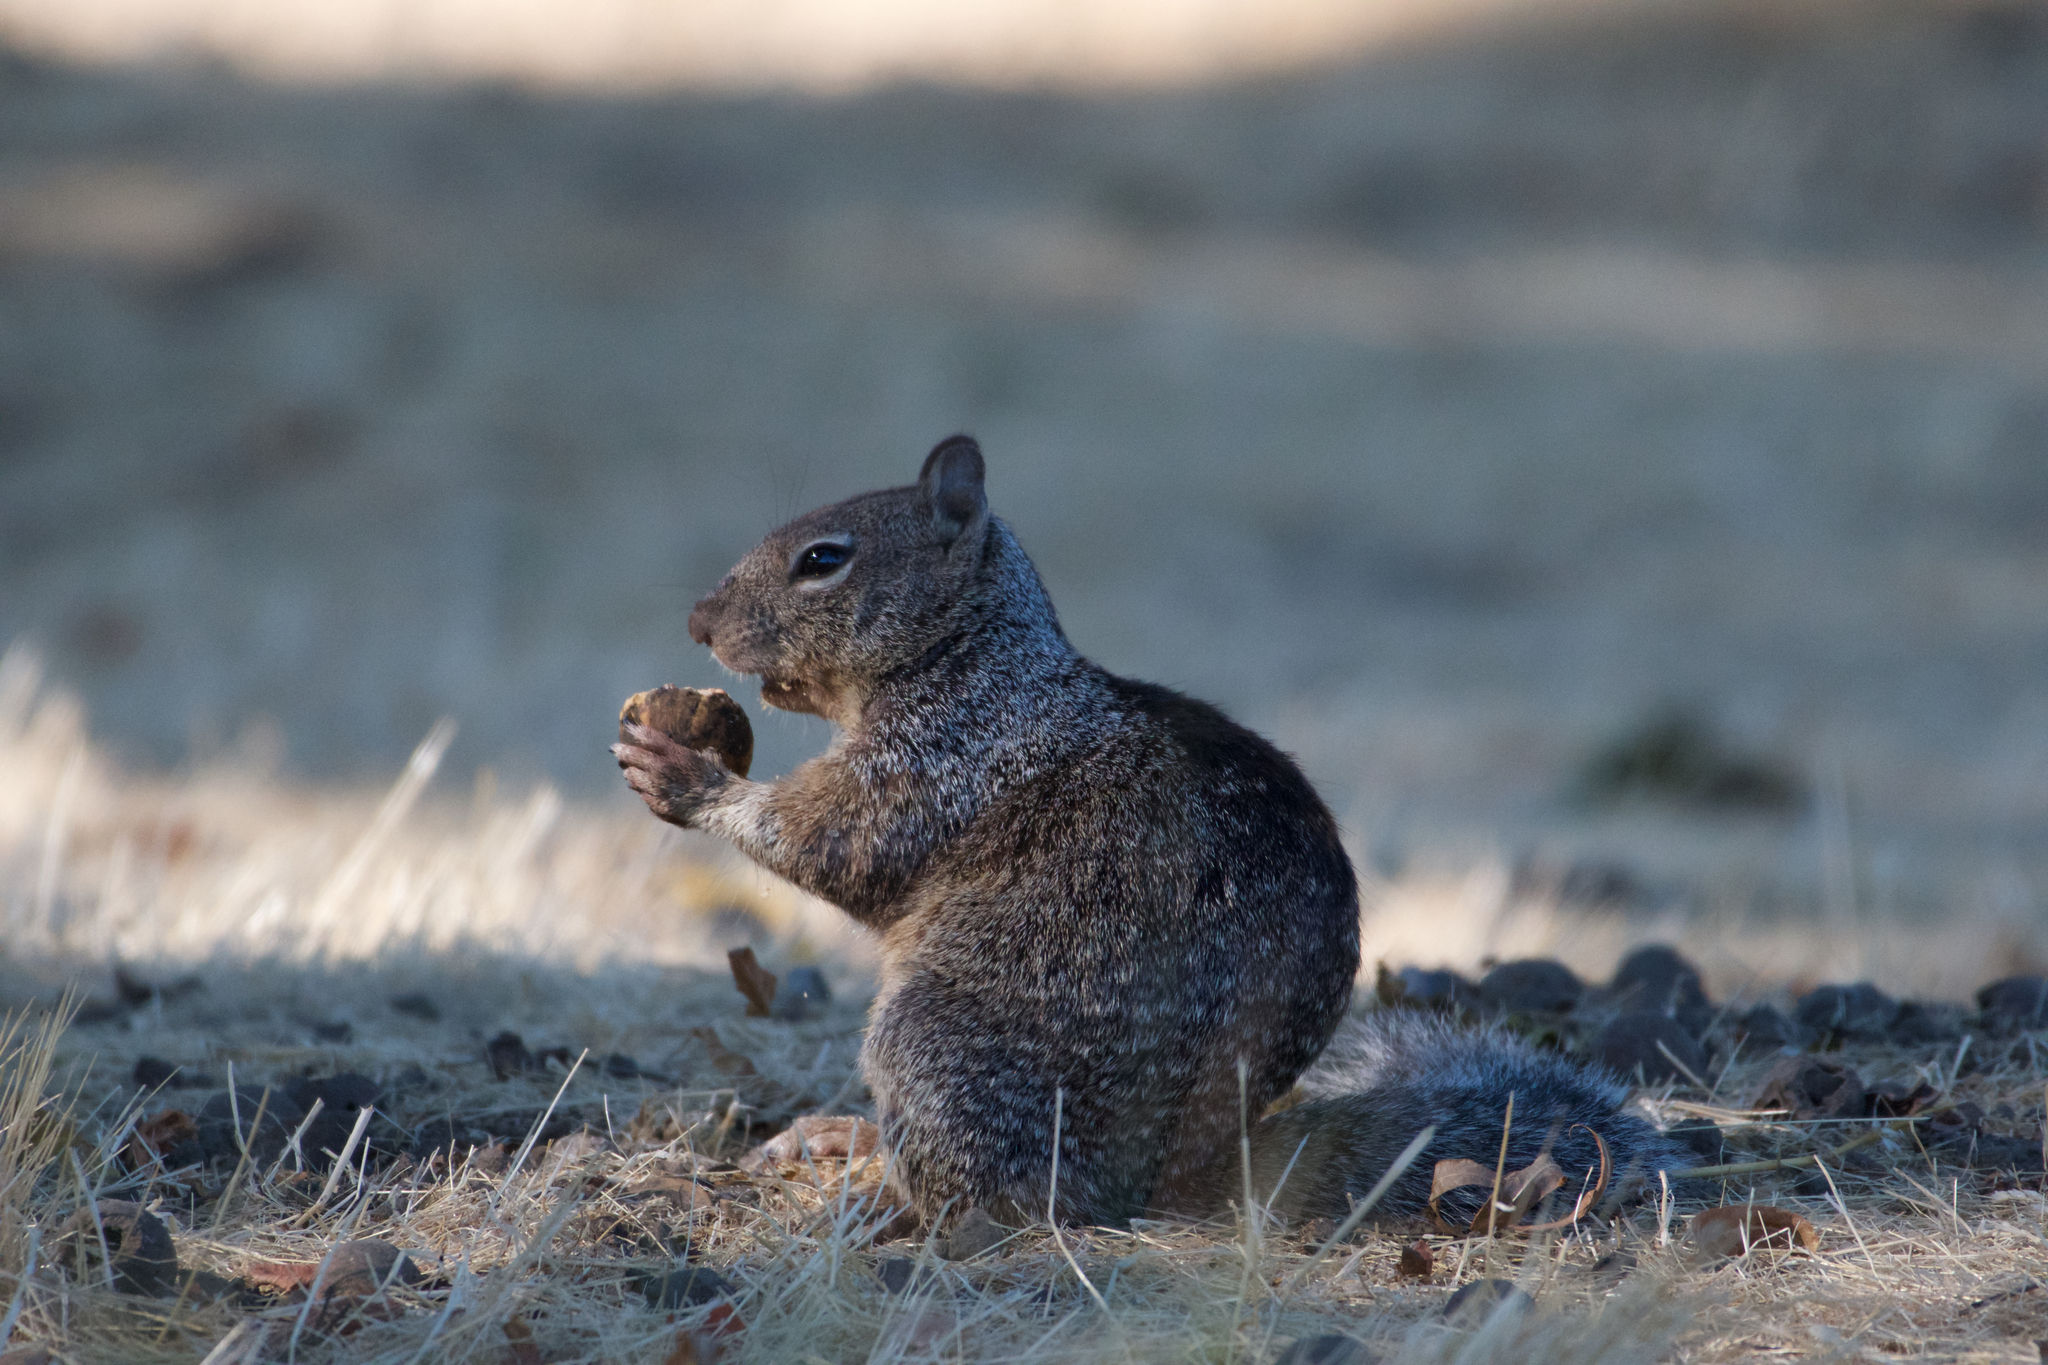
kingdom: Animalia
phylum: Chordata
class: Mammalia
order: Rodentia
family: Sciuridae
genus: Otospermophilus
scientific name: Otospermophilus beecheyi
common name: California ground squirrel
